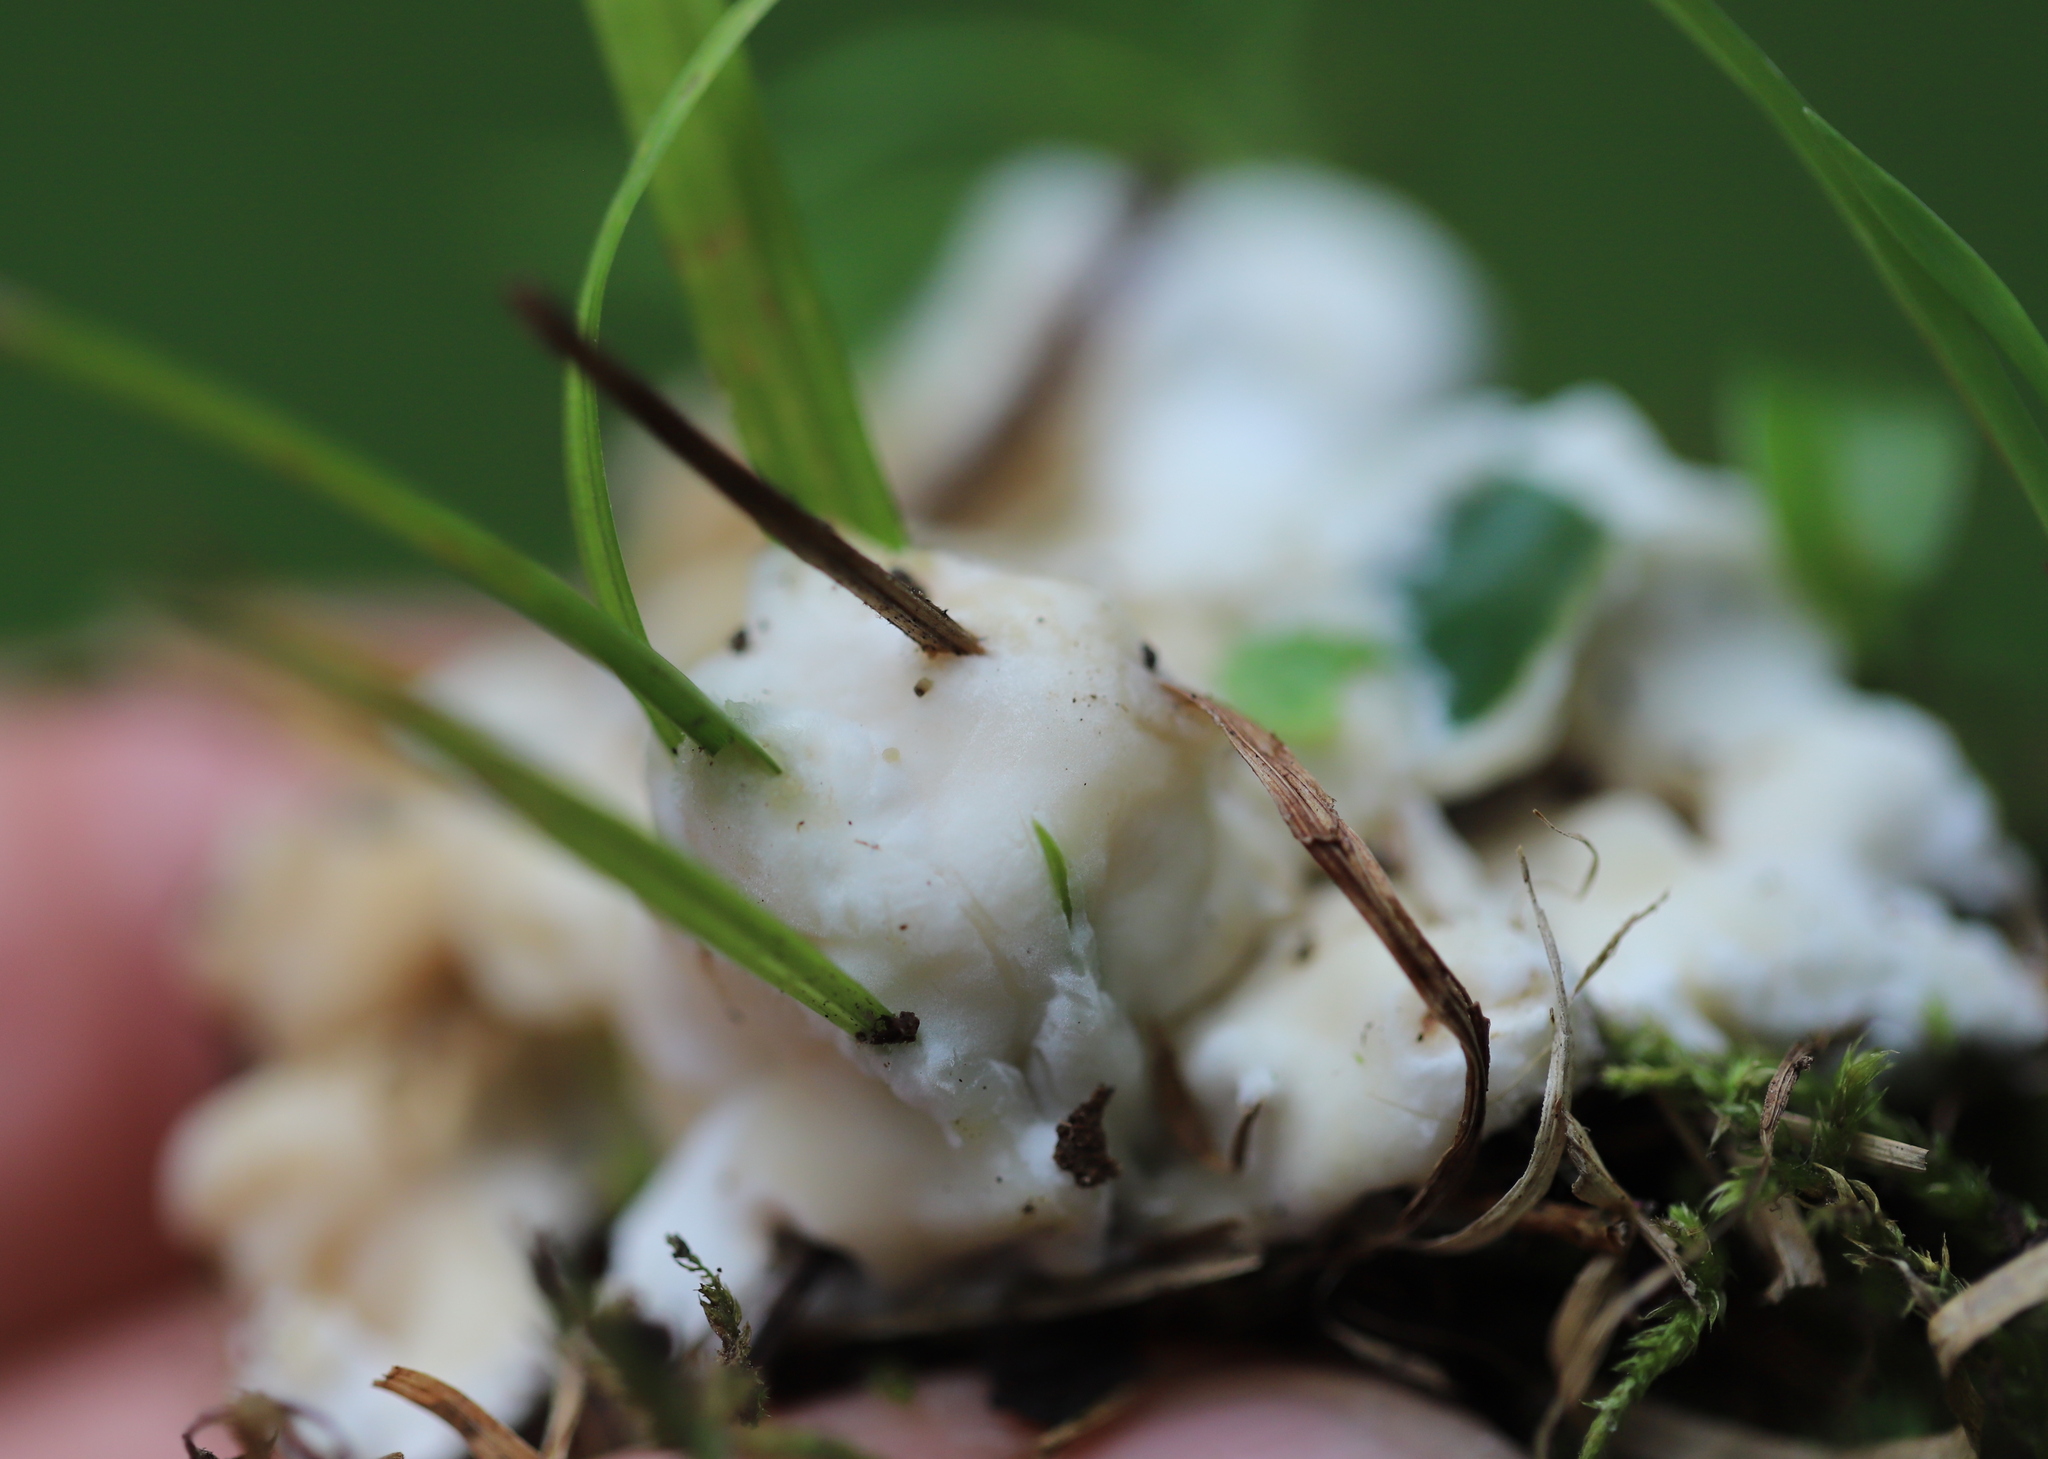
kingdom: Fungi
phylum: Basidiomycota
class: Agaricomycetes
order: Sebacinales
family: Sebacinaceae
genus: Sebacina
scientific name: Sebacina incrustans
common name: Enveloping crust
